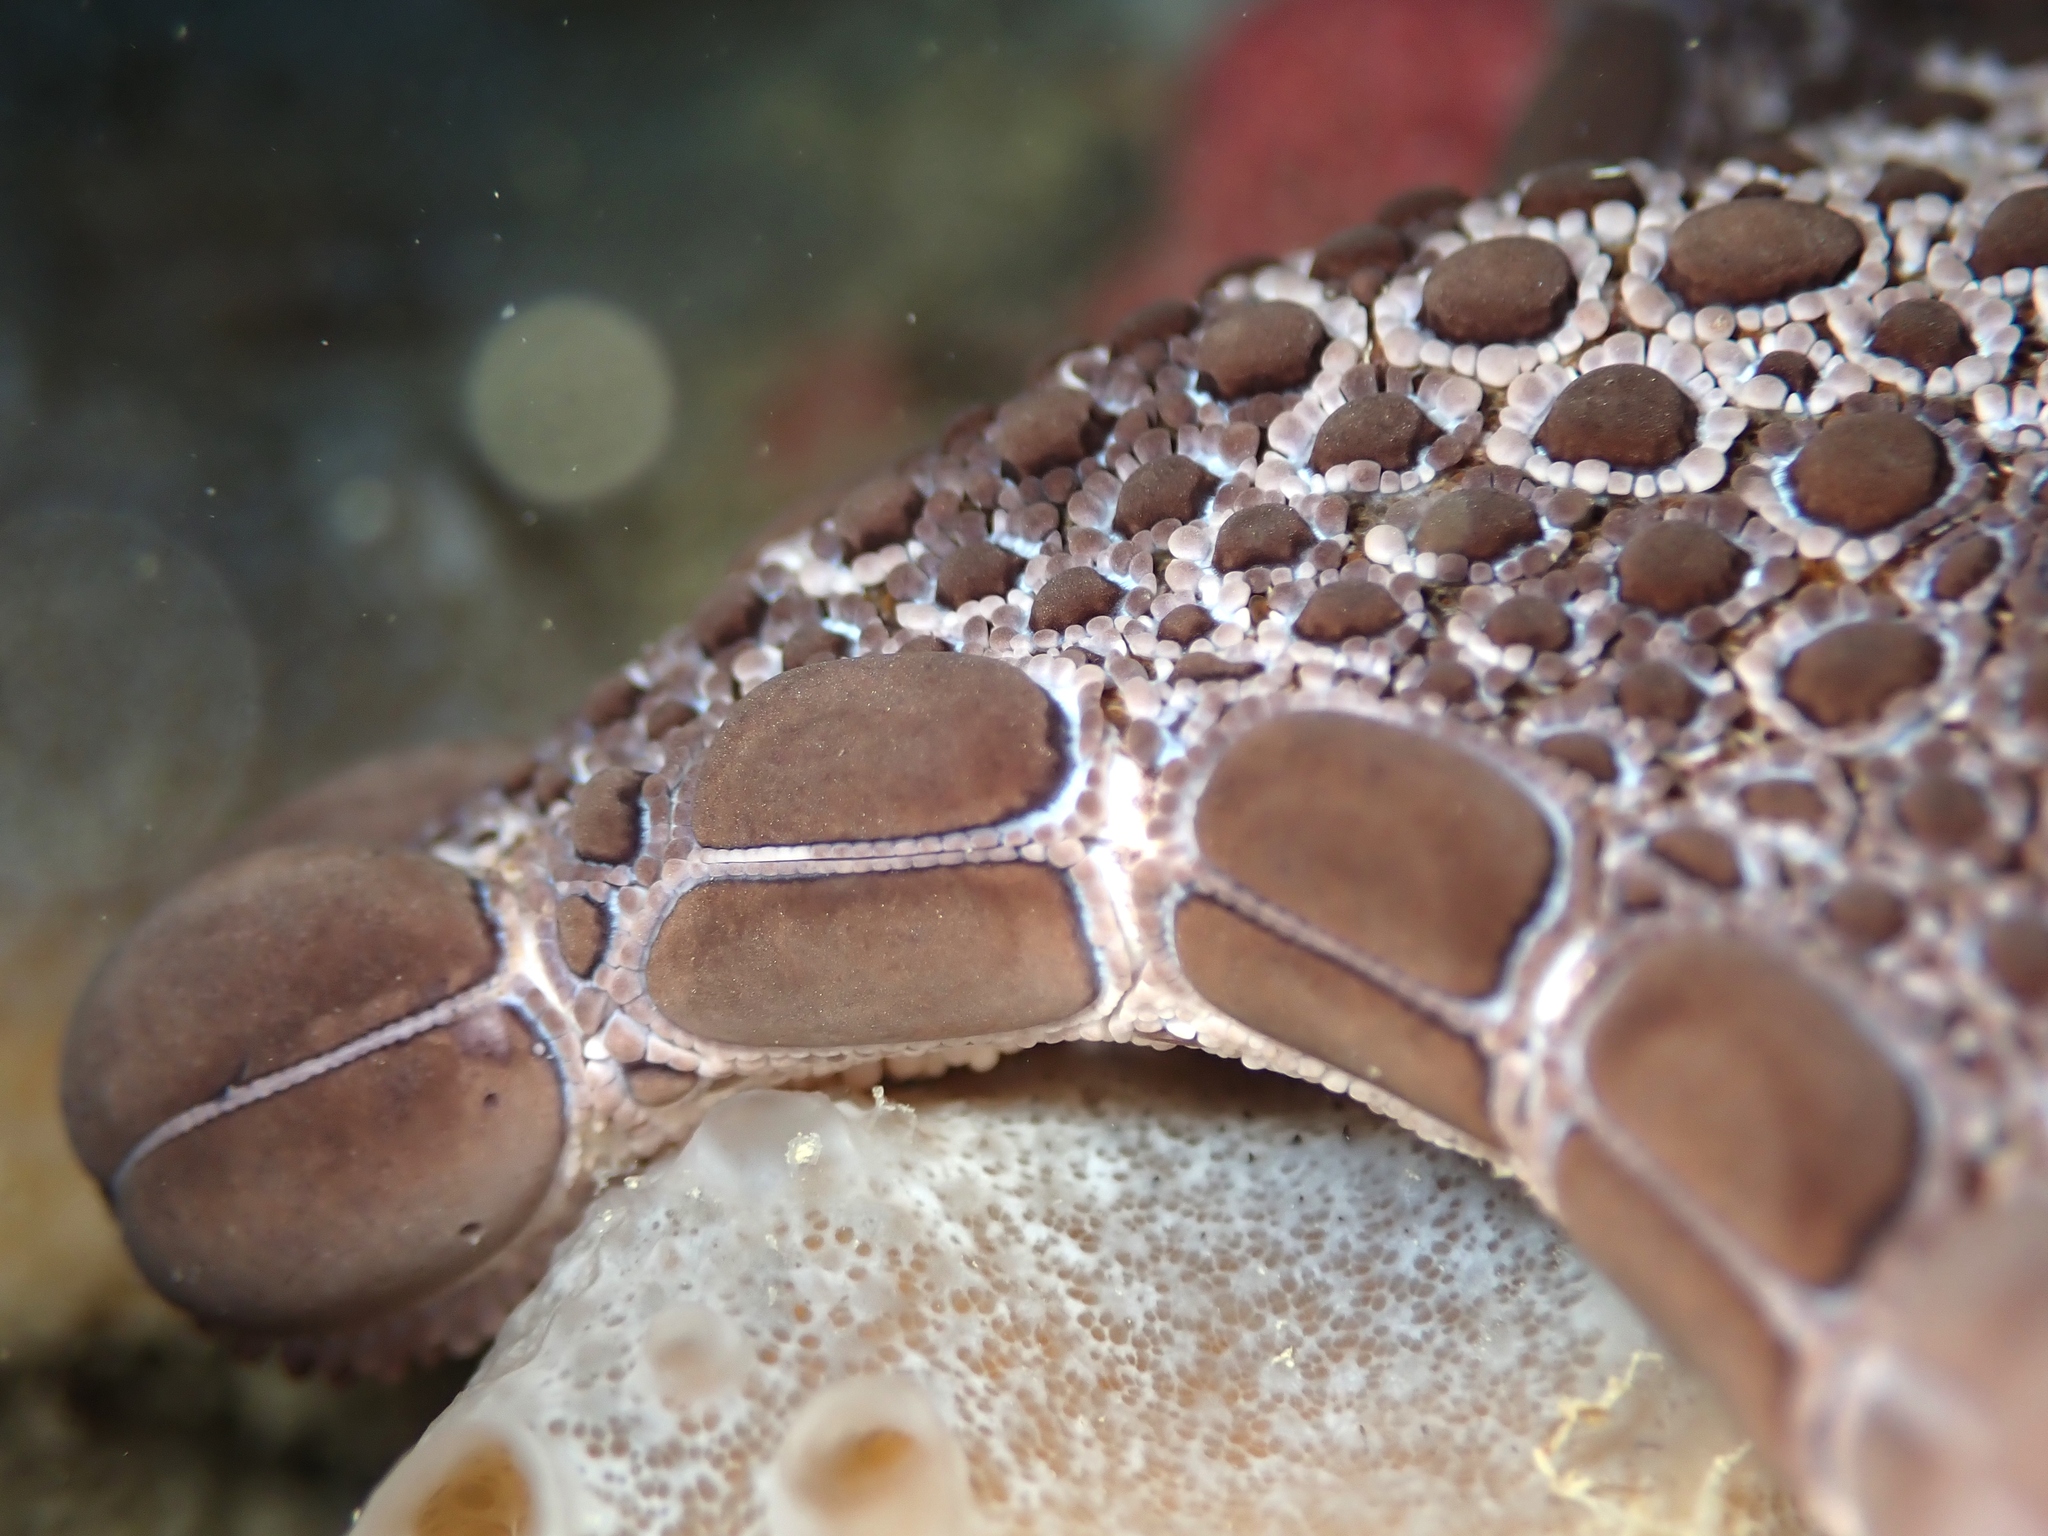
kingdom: Animalia
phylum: Echinodermata
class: Asteroidea
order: Valvatida
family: Goniasteridae
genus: Pentagonaster
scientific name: Pentagonaster pulchellus
